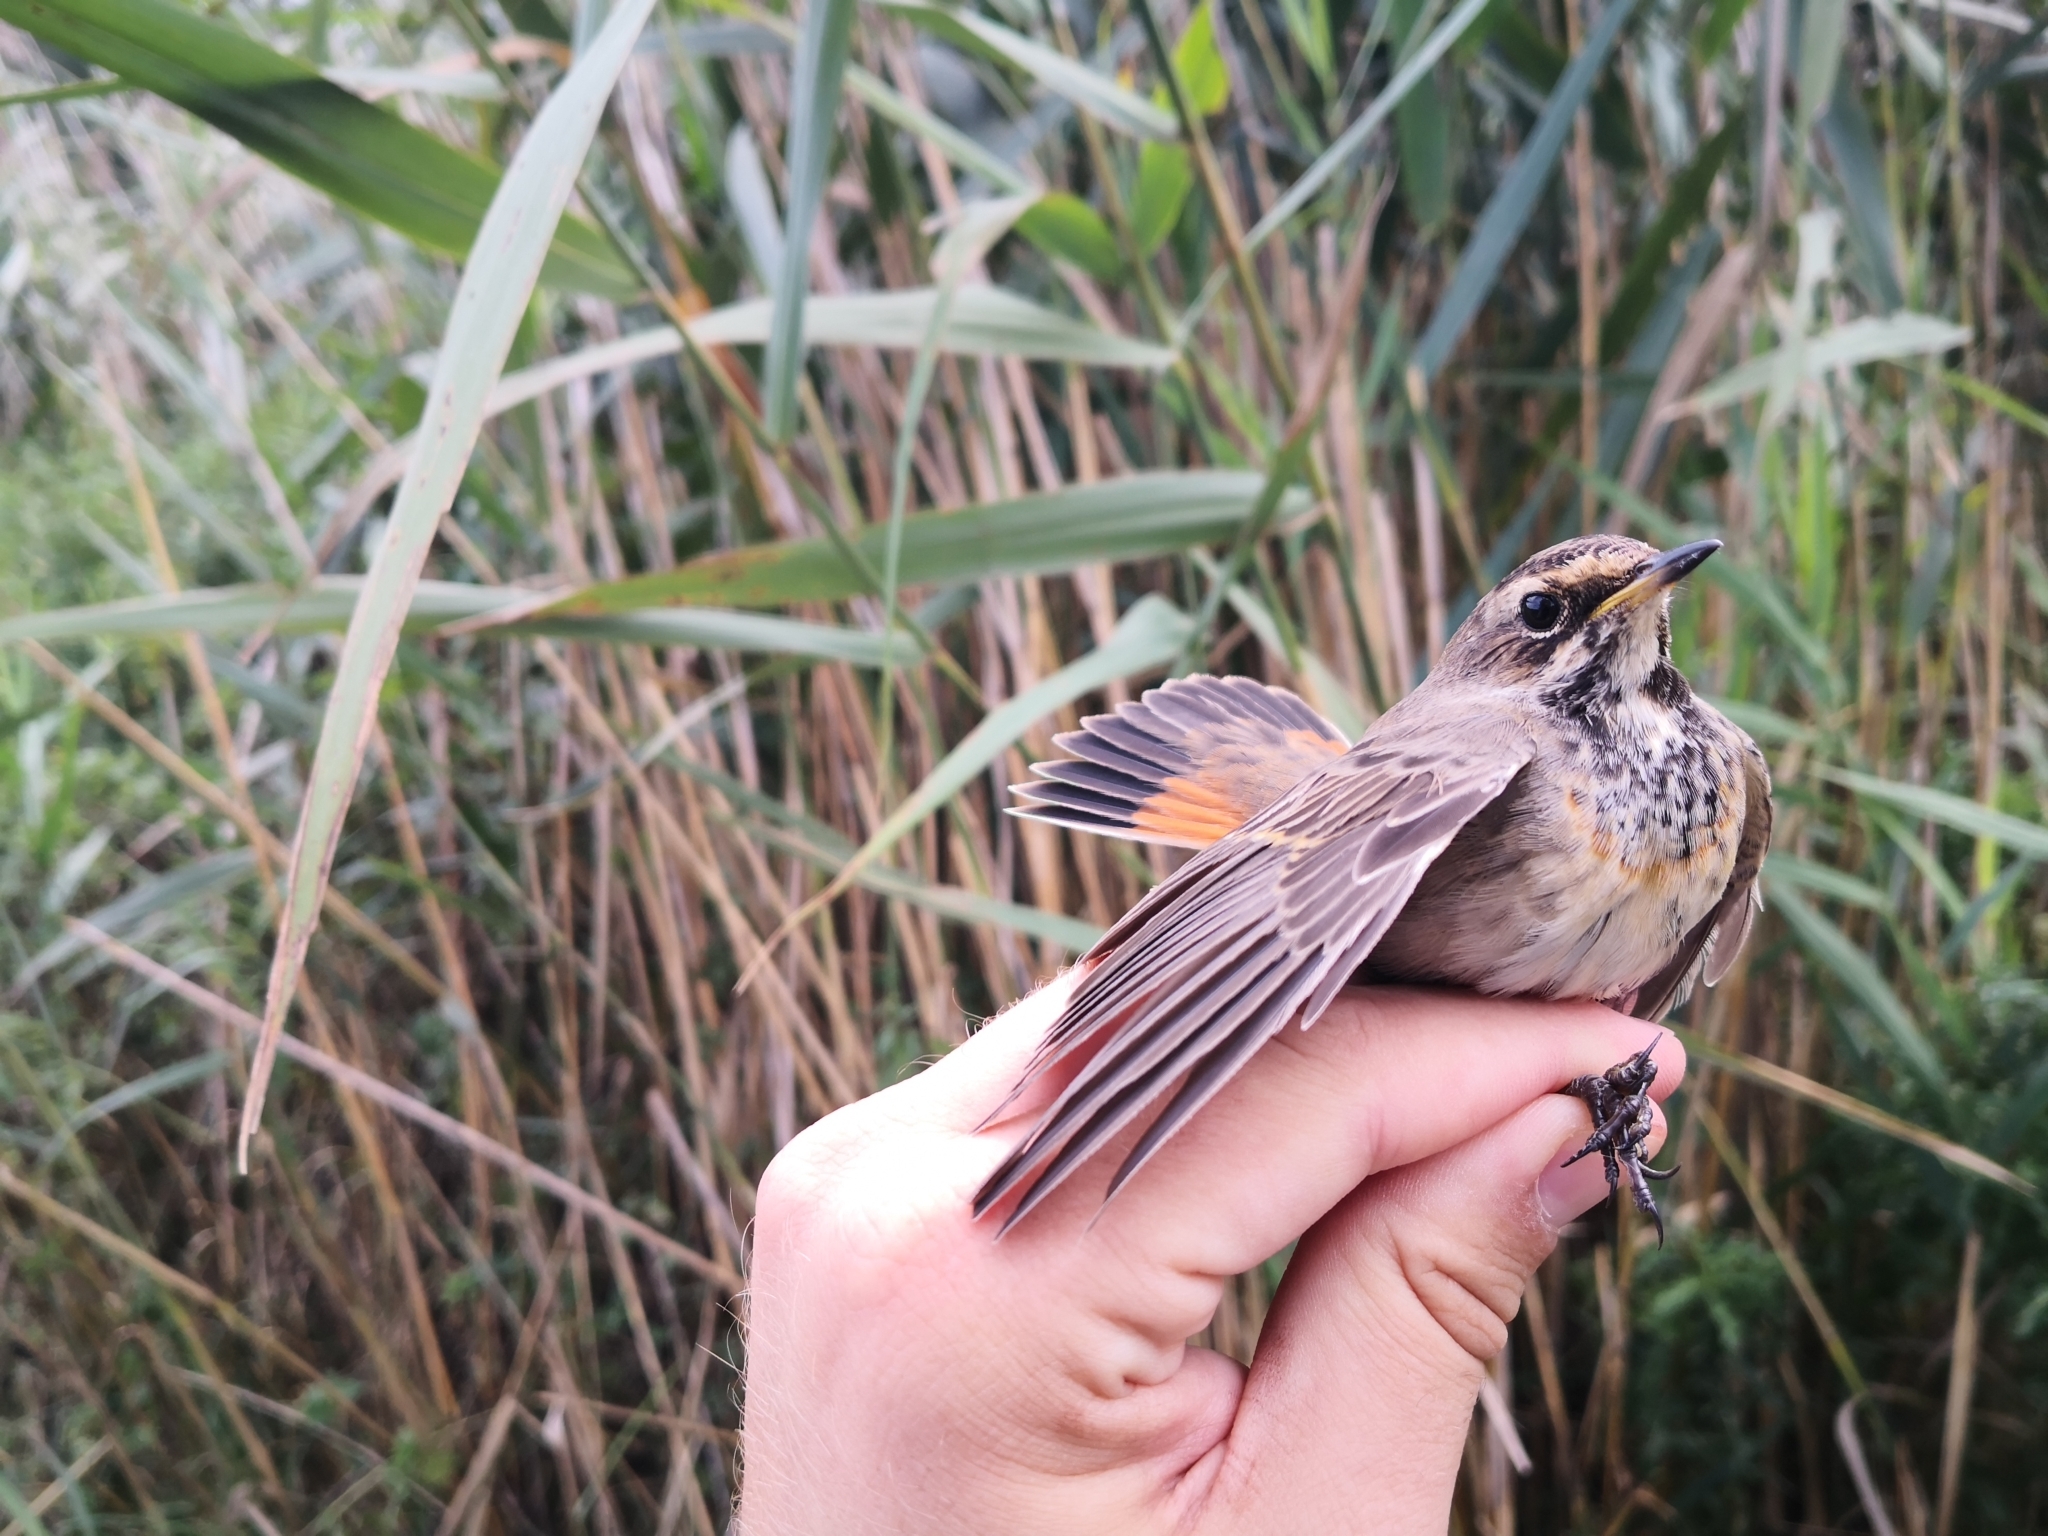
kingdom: Animalia
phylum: Chordata
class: Aves
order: Passeriformes
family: Muscicapidae
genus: Luscinia
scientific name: Luscinia svecica
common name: Bluethroat
